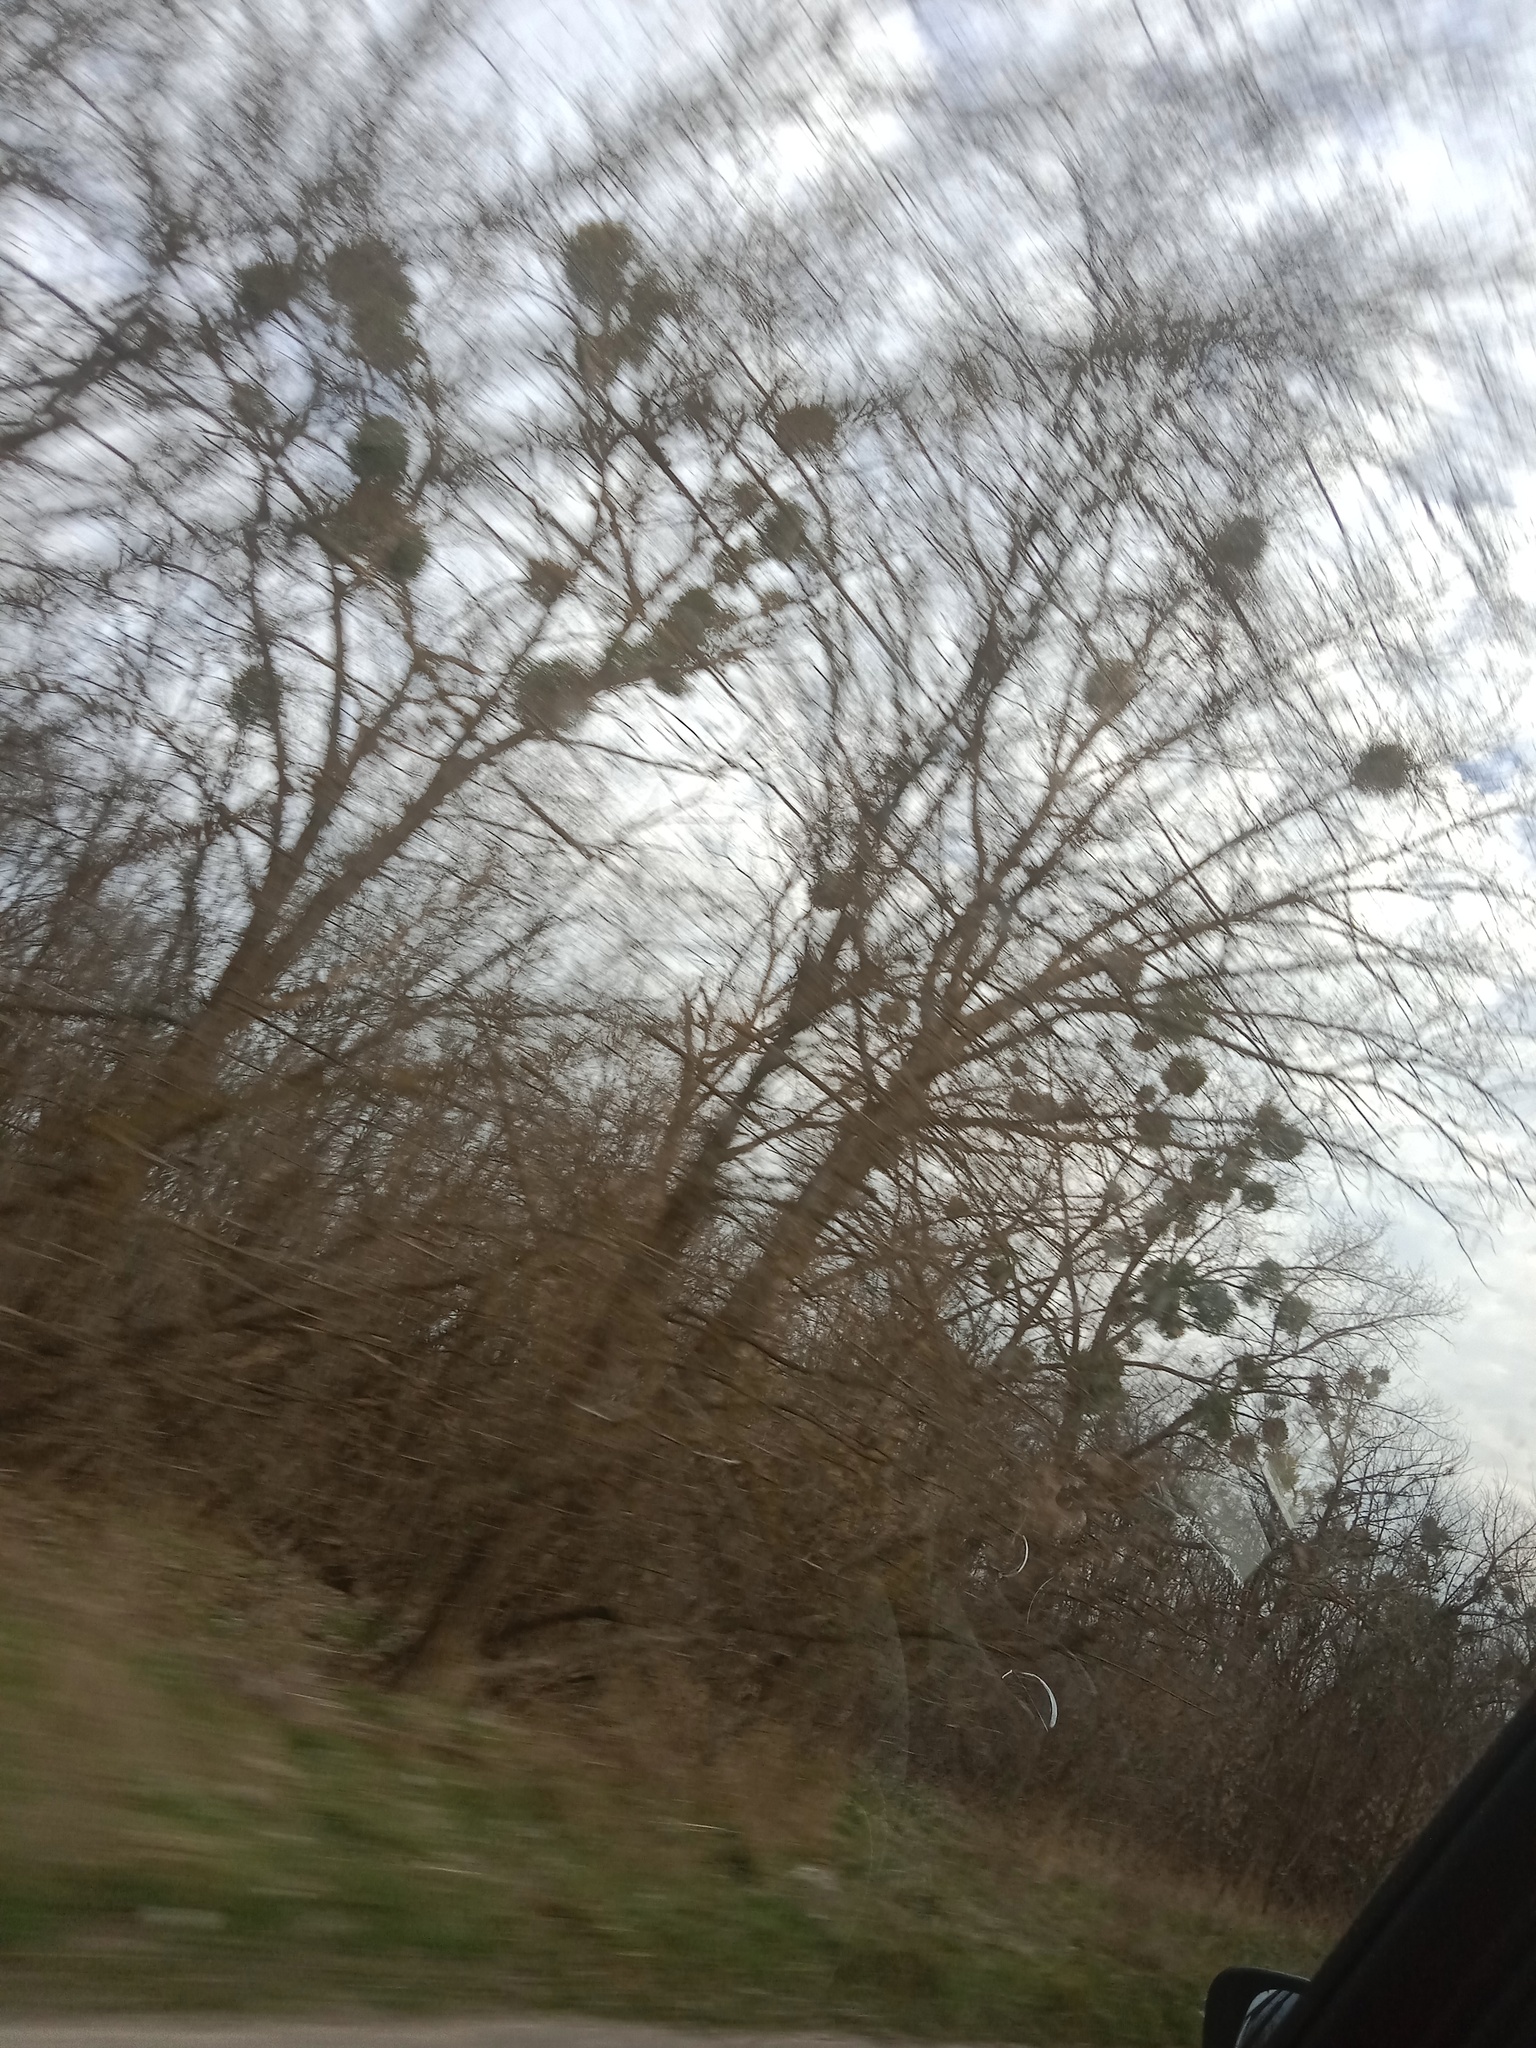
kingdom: Plantae
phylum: Tracheophyta
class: Magnoliopsida
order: Santalales
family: Viscaceae
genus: Viscum
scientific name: Viscum album
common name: Mistletoe
